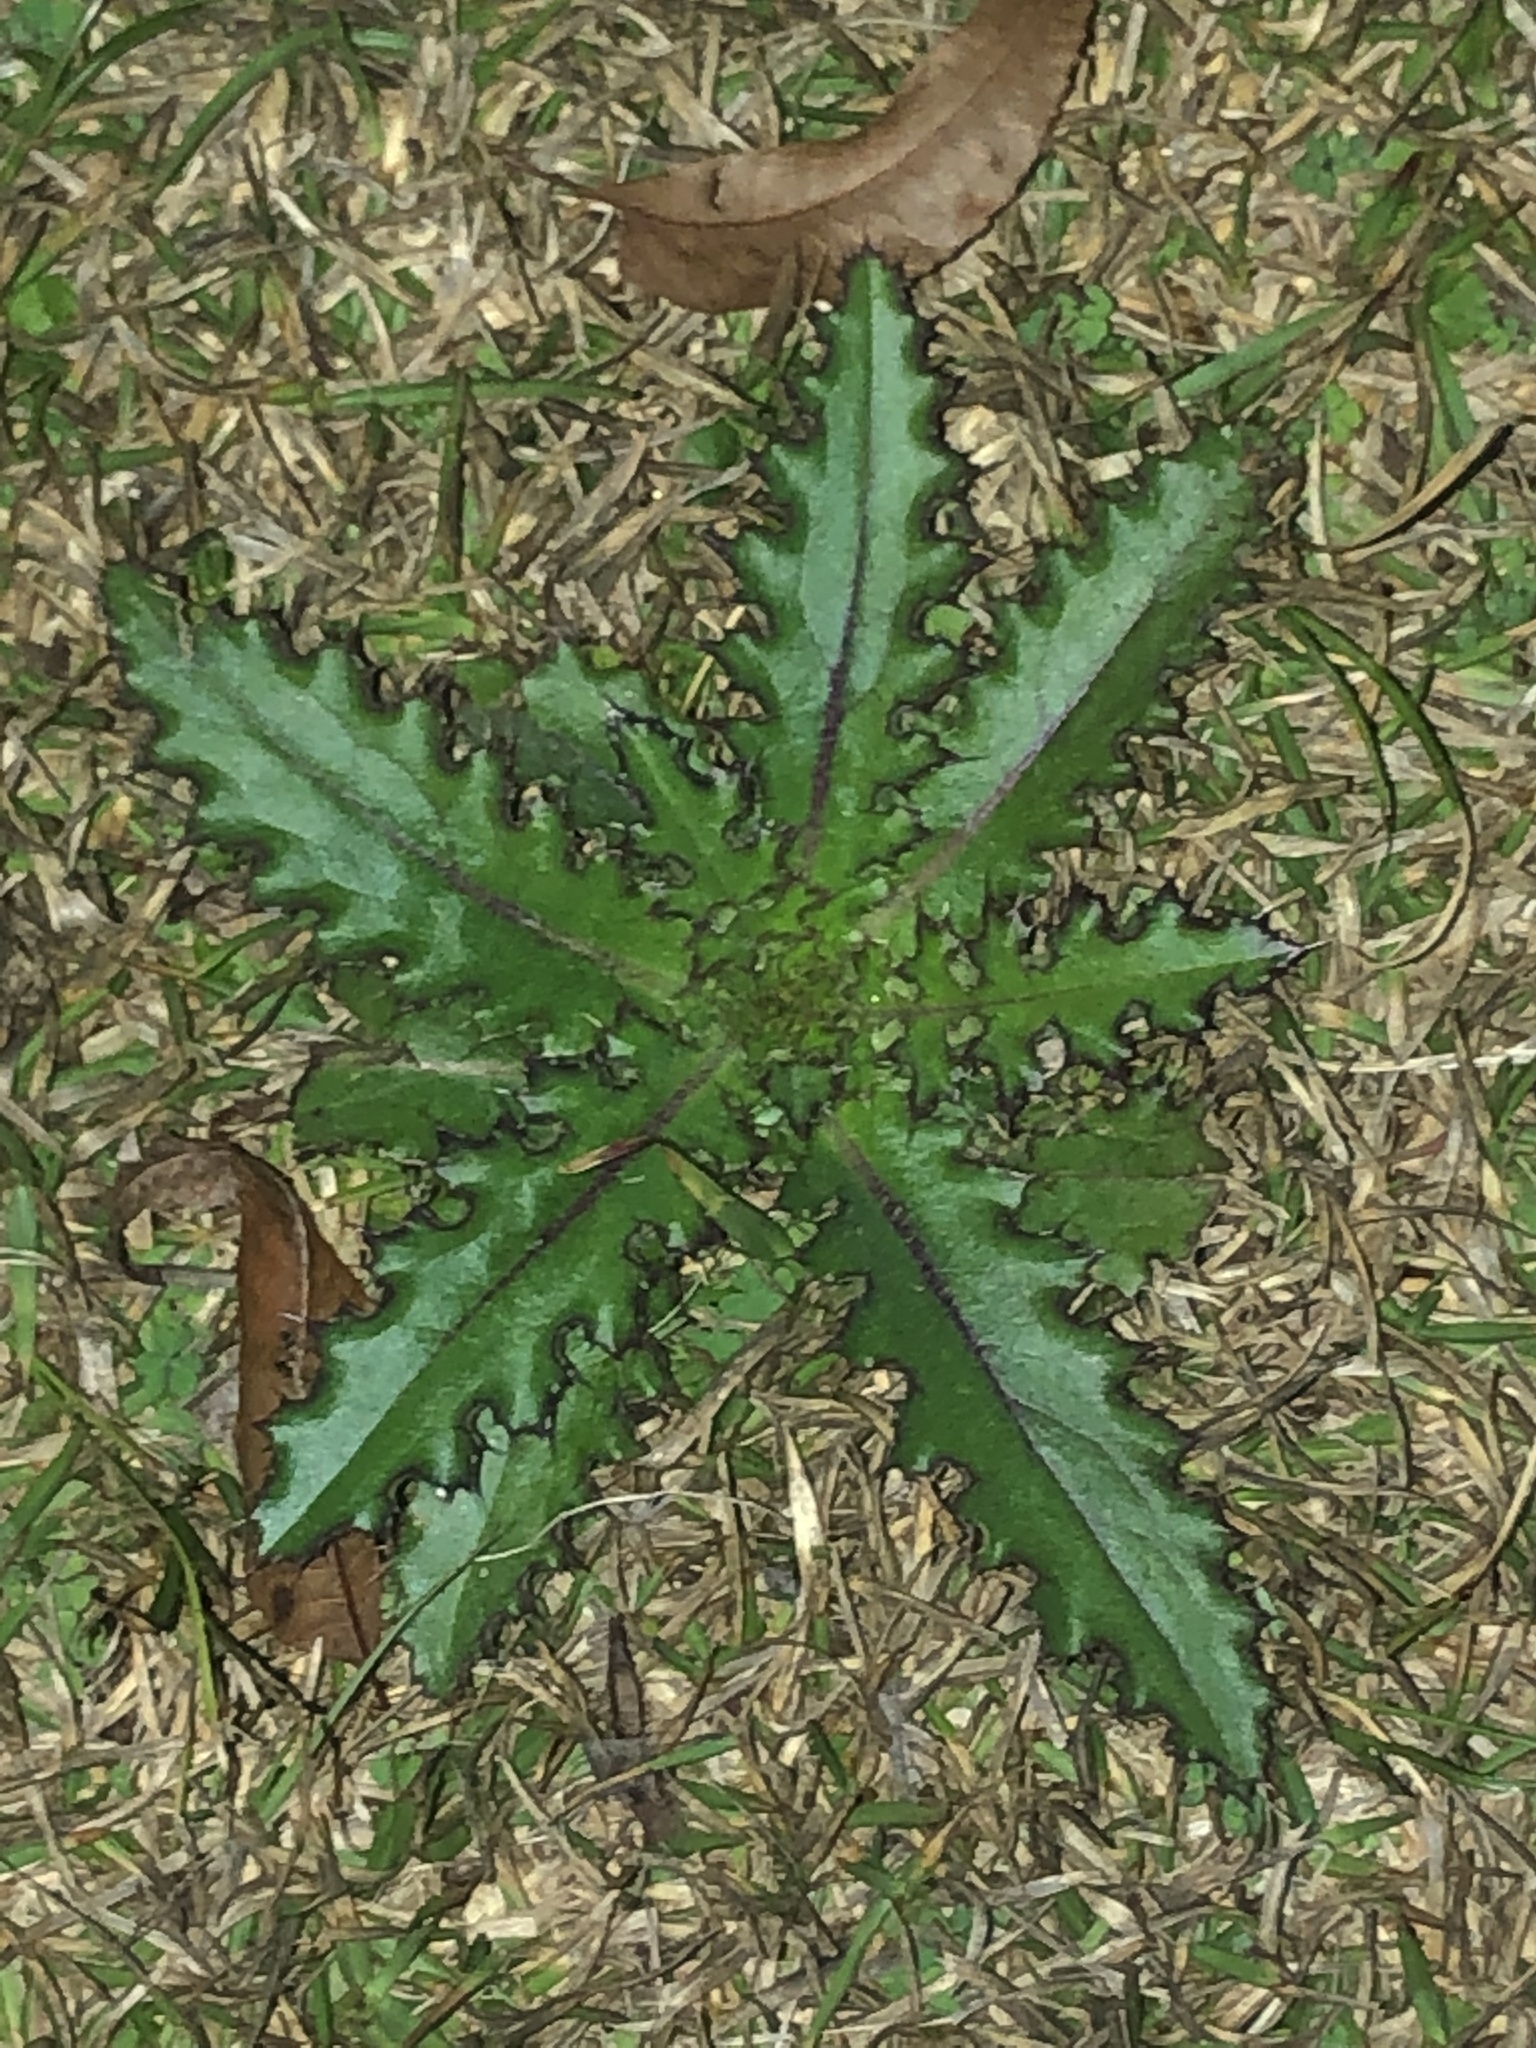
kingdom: Plantae
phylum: Tracheophyta
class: Magnoliopsida
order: Asterales
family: Asteraceae
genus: Cirsium
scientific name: Cirsium horridulum
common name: Bristly thistle
